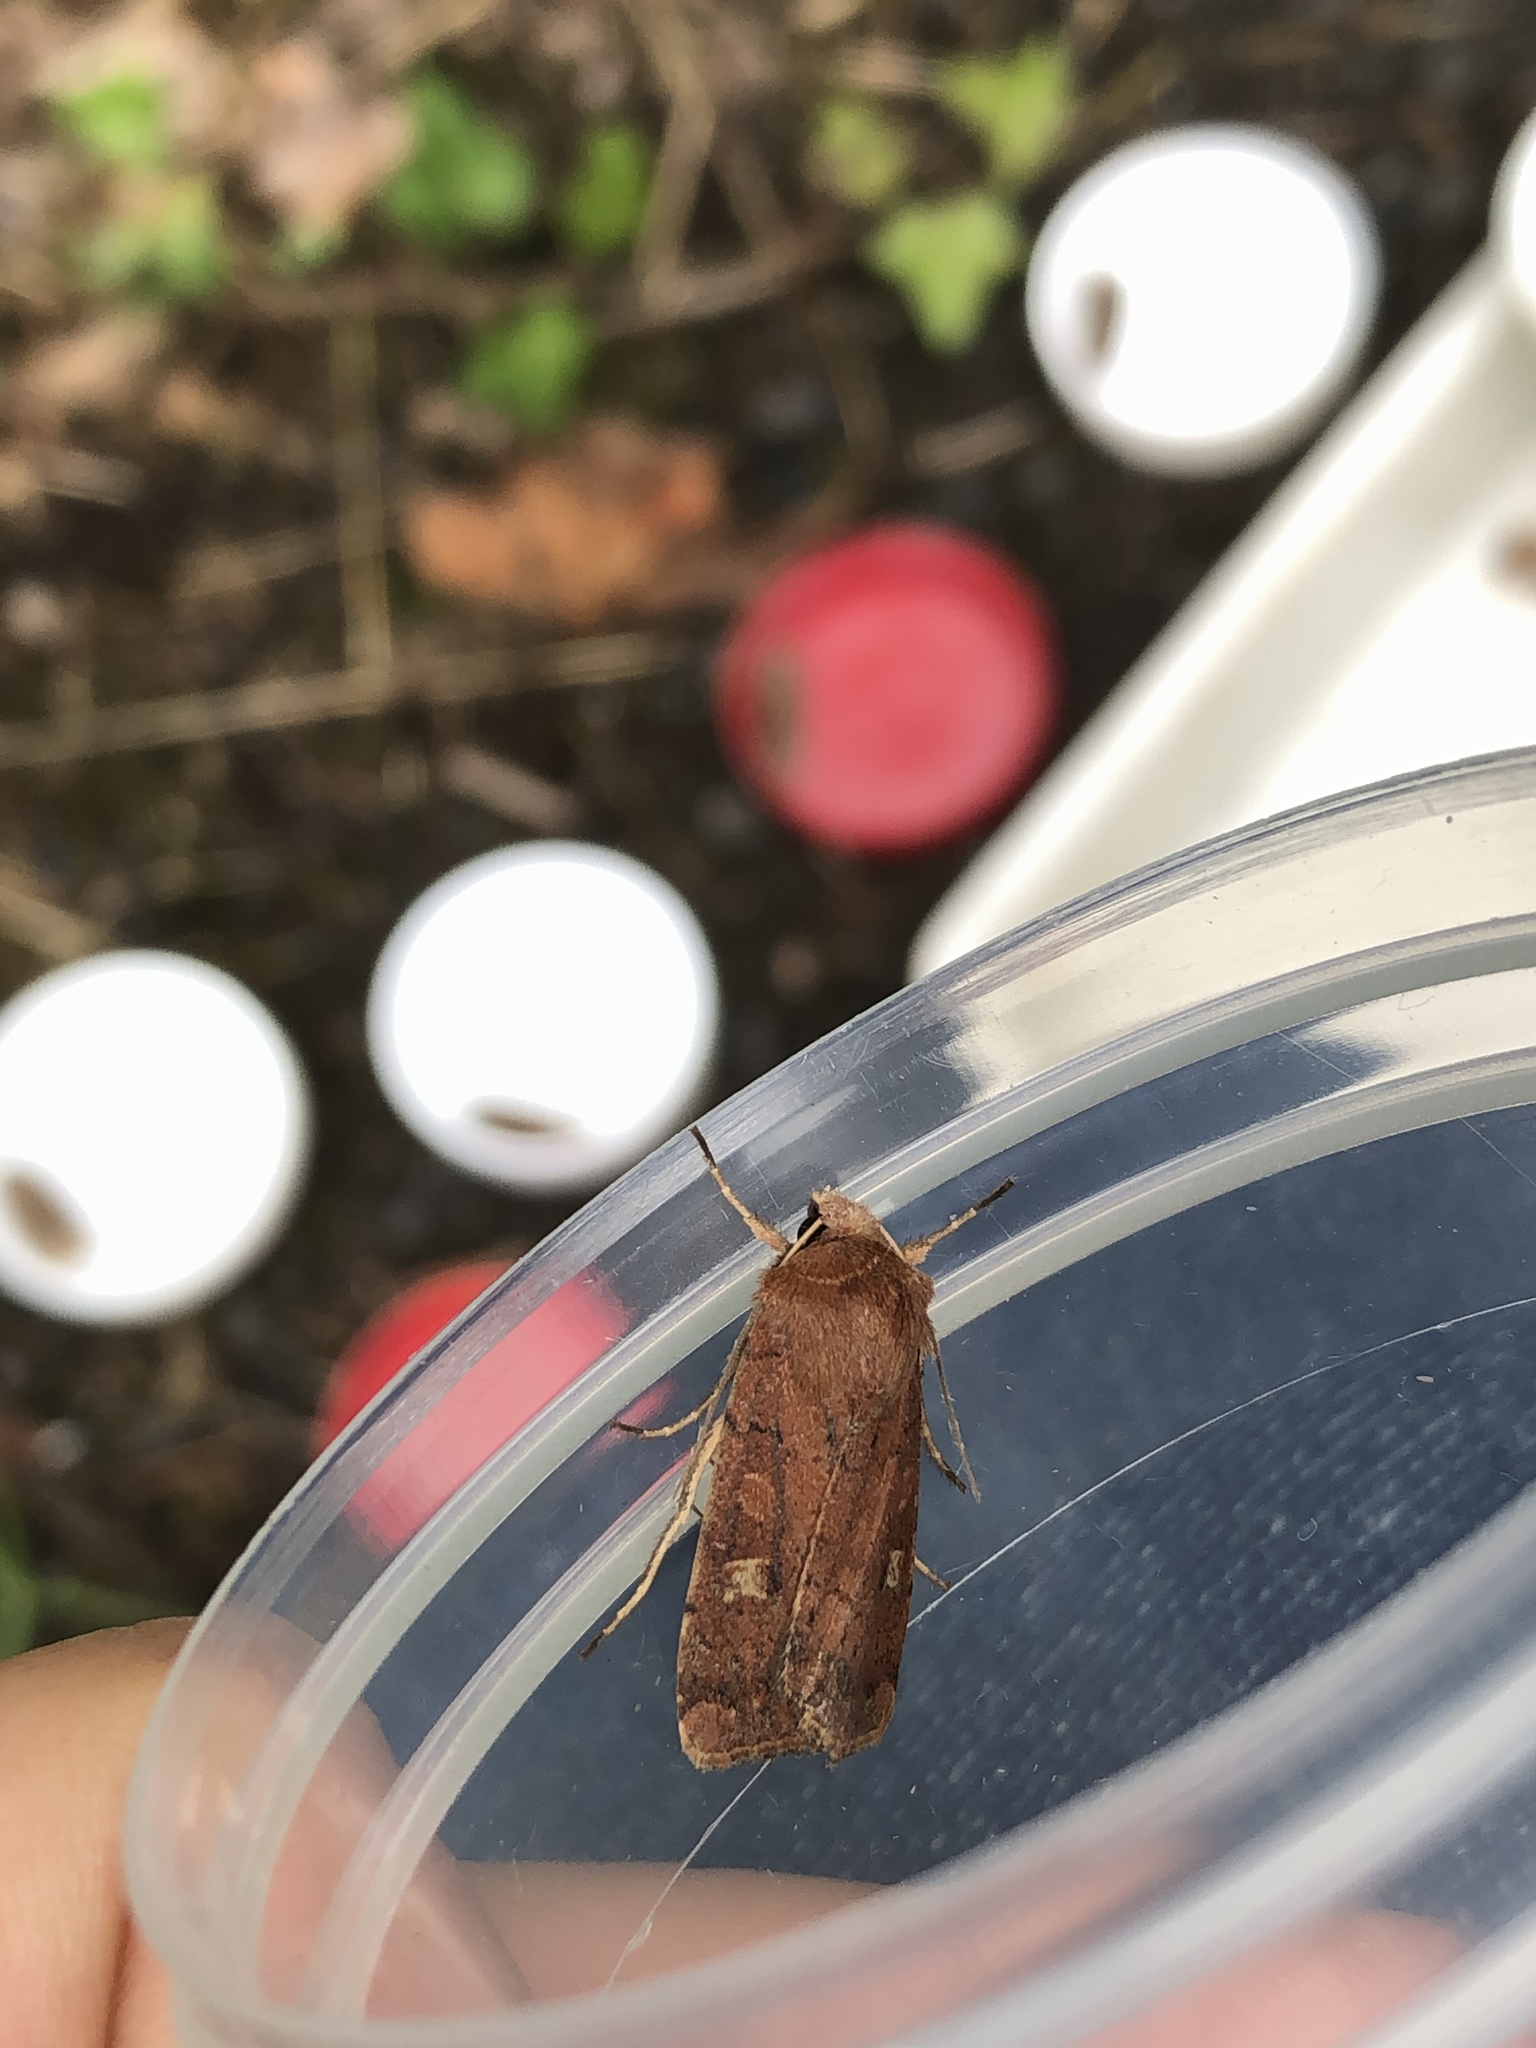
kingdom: Animalia
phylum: Arthropoda
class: Insecta
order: Lepidoptera
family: Noctuidae
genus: Xestia
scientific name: Xestia xanthographa
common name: Square-spot rustic
